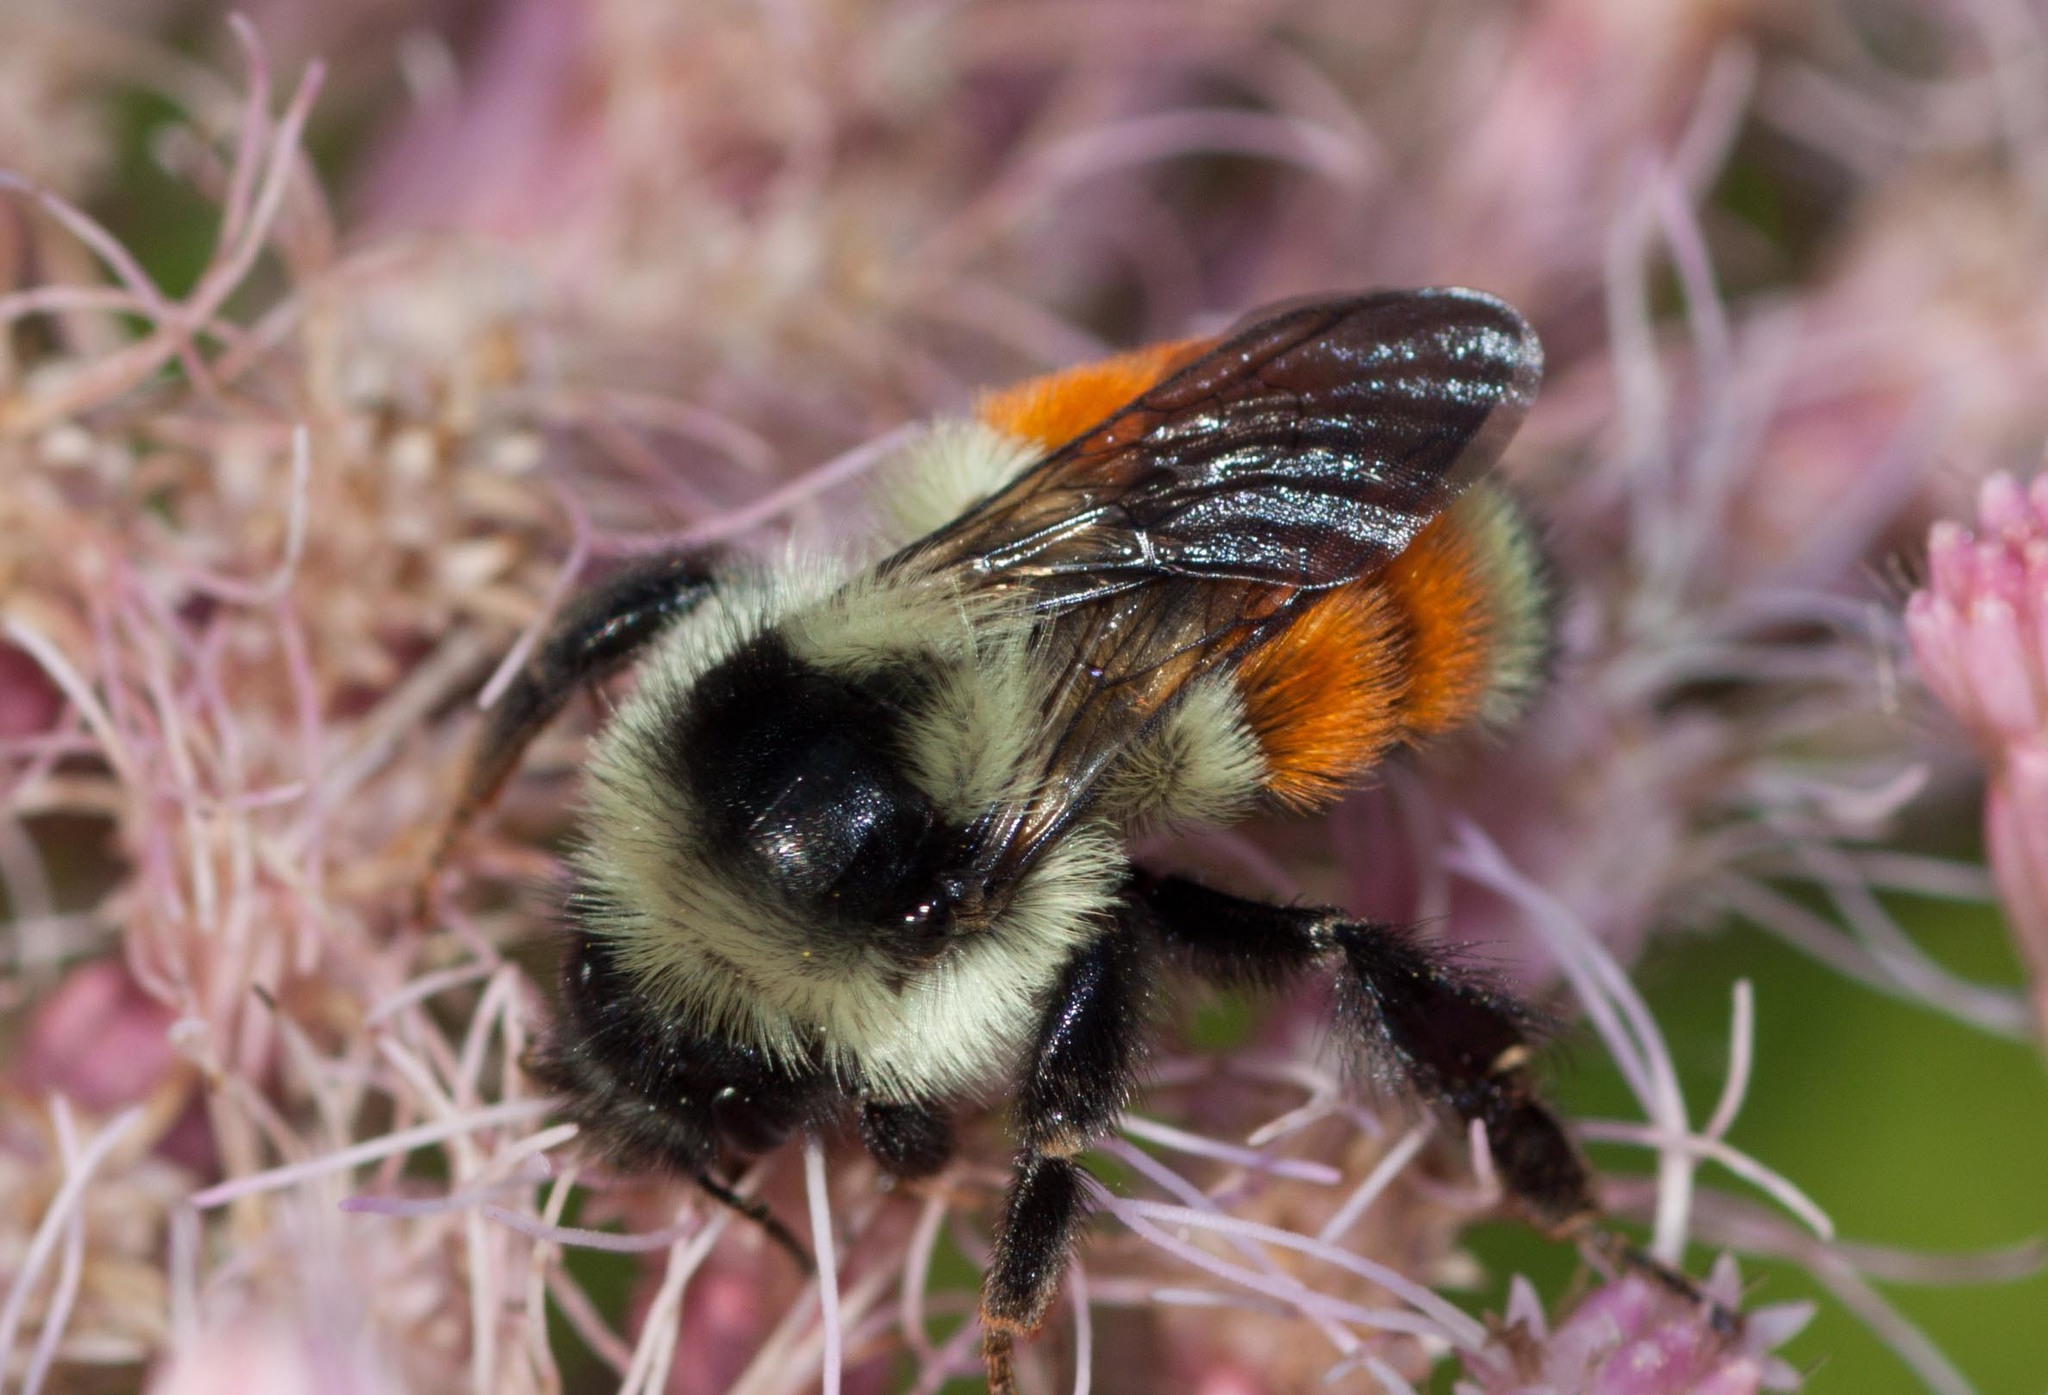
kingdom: Animalia
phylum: Arthropoda
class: Insecta
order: Hymenoptera
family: Apidae
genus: Bombus
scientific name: Bombus ternarius
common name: Tri-colored bumble bee
